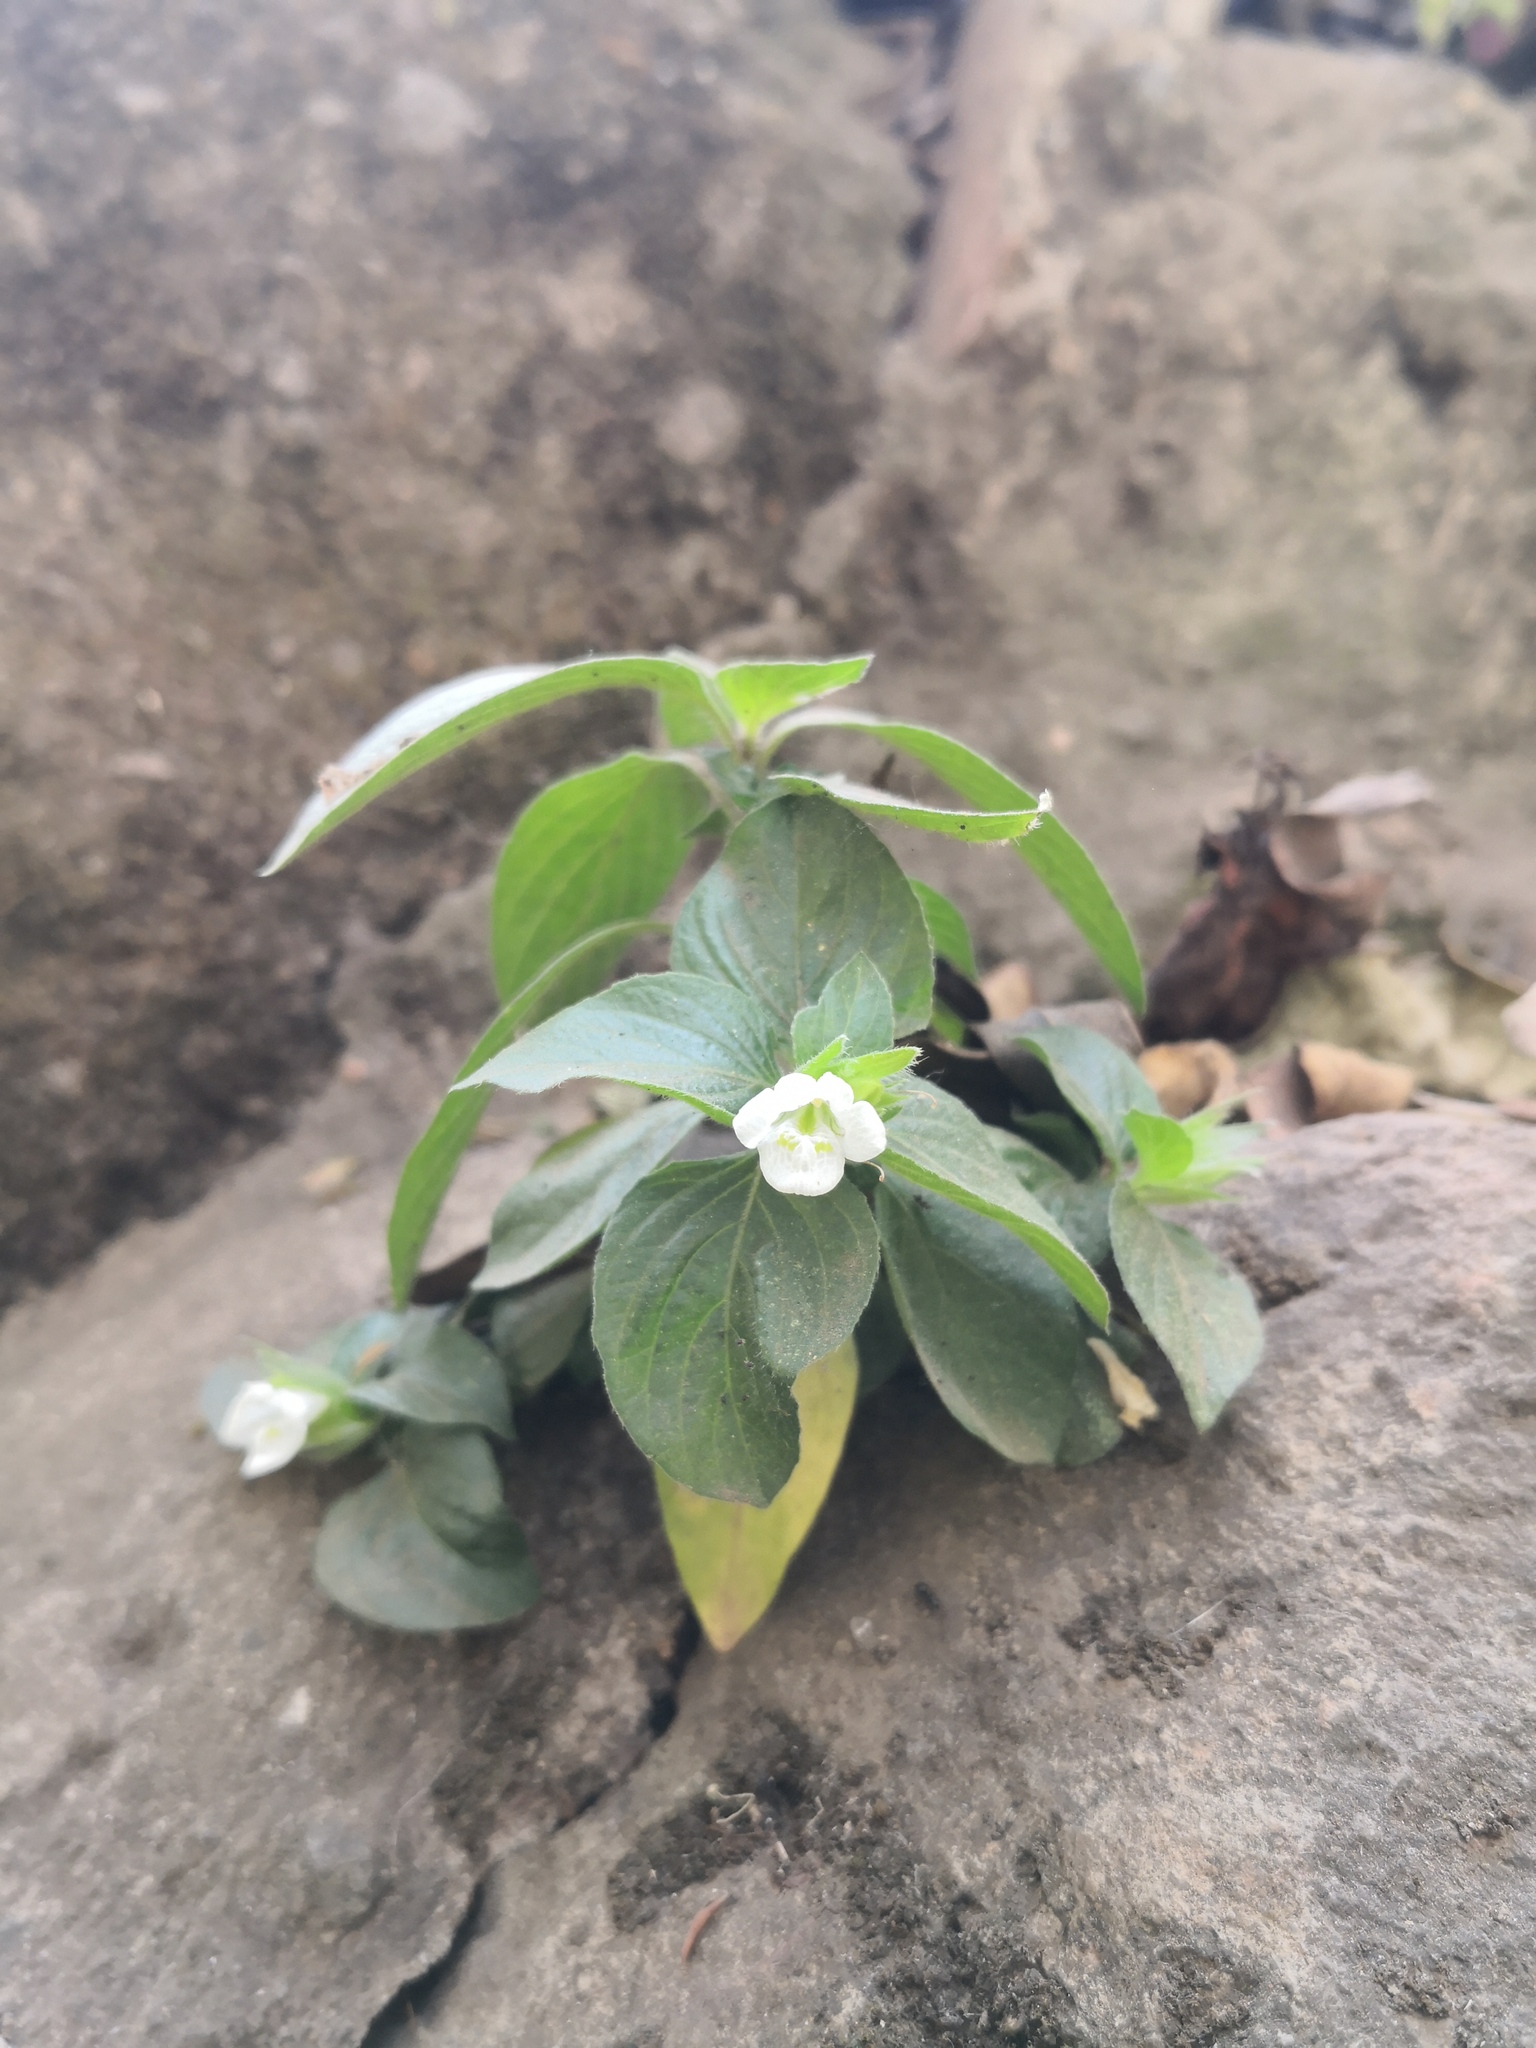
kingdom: Plantae
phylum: Tracheophyta
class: Magnoliopsida
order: Lamiales
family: Acanthaceae
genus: Asystasia
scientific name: Asystasia mysorensis
